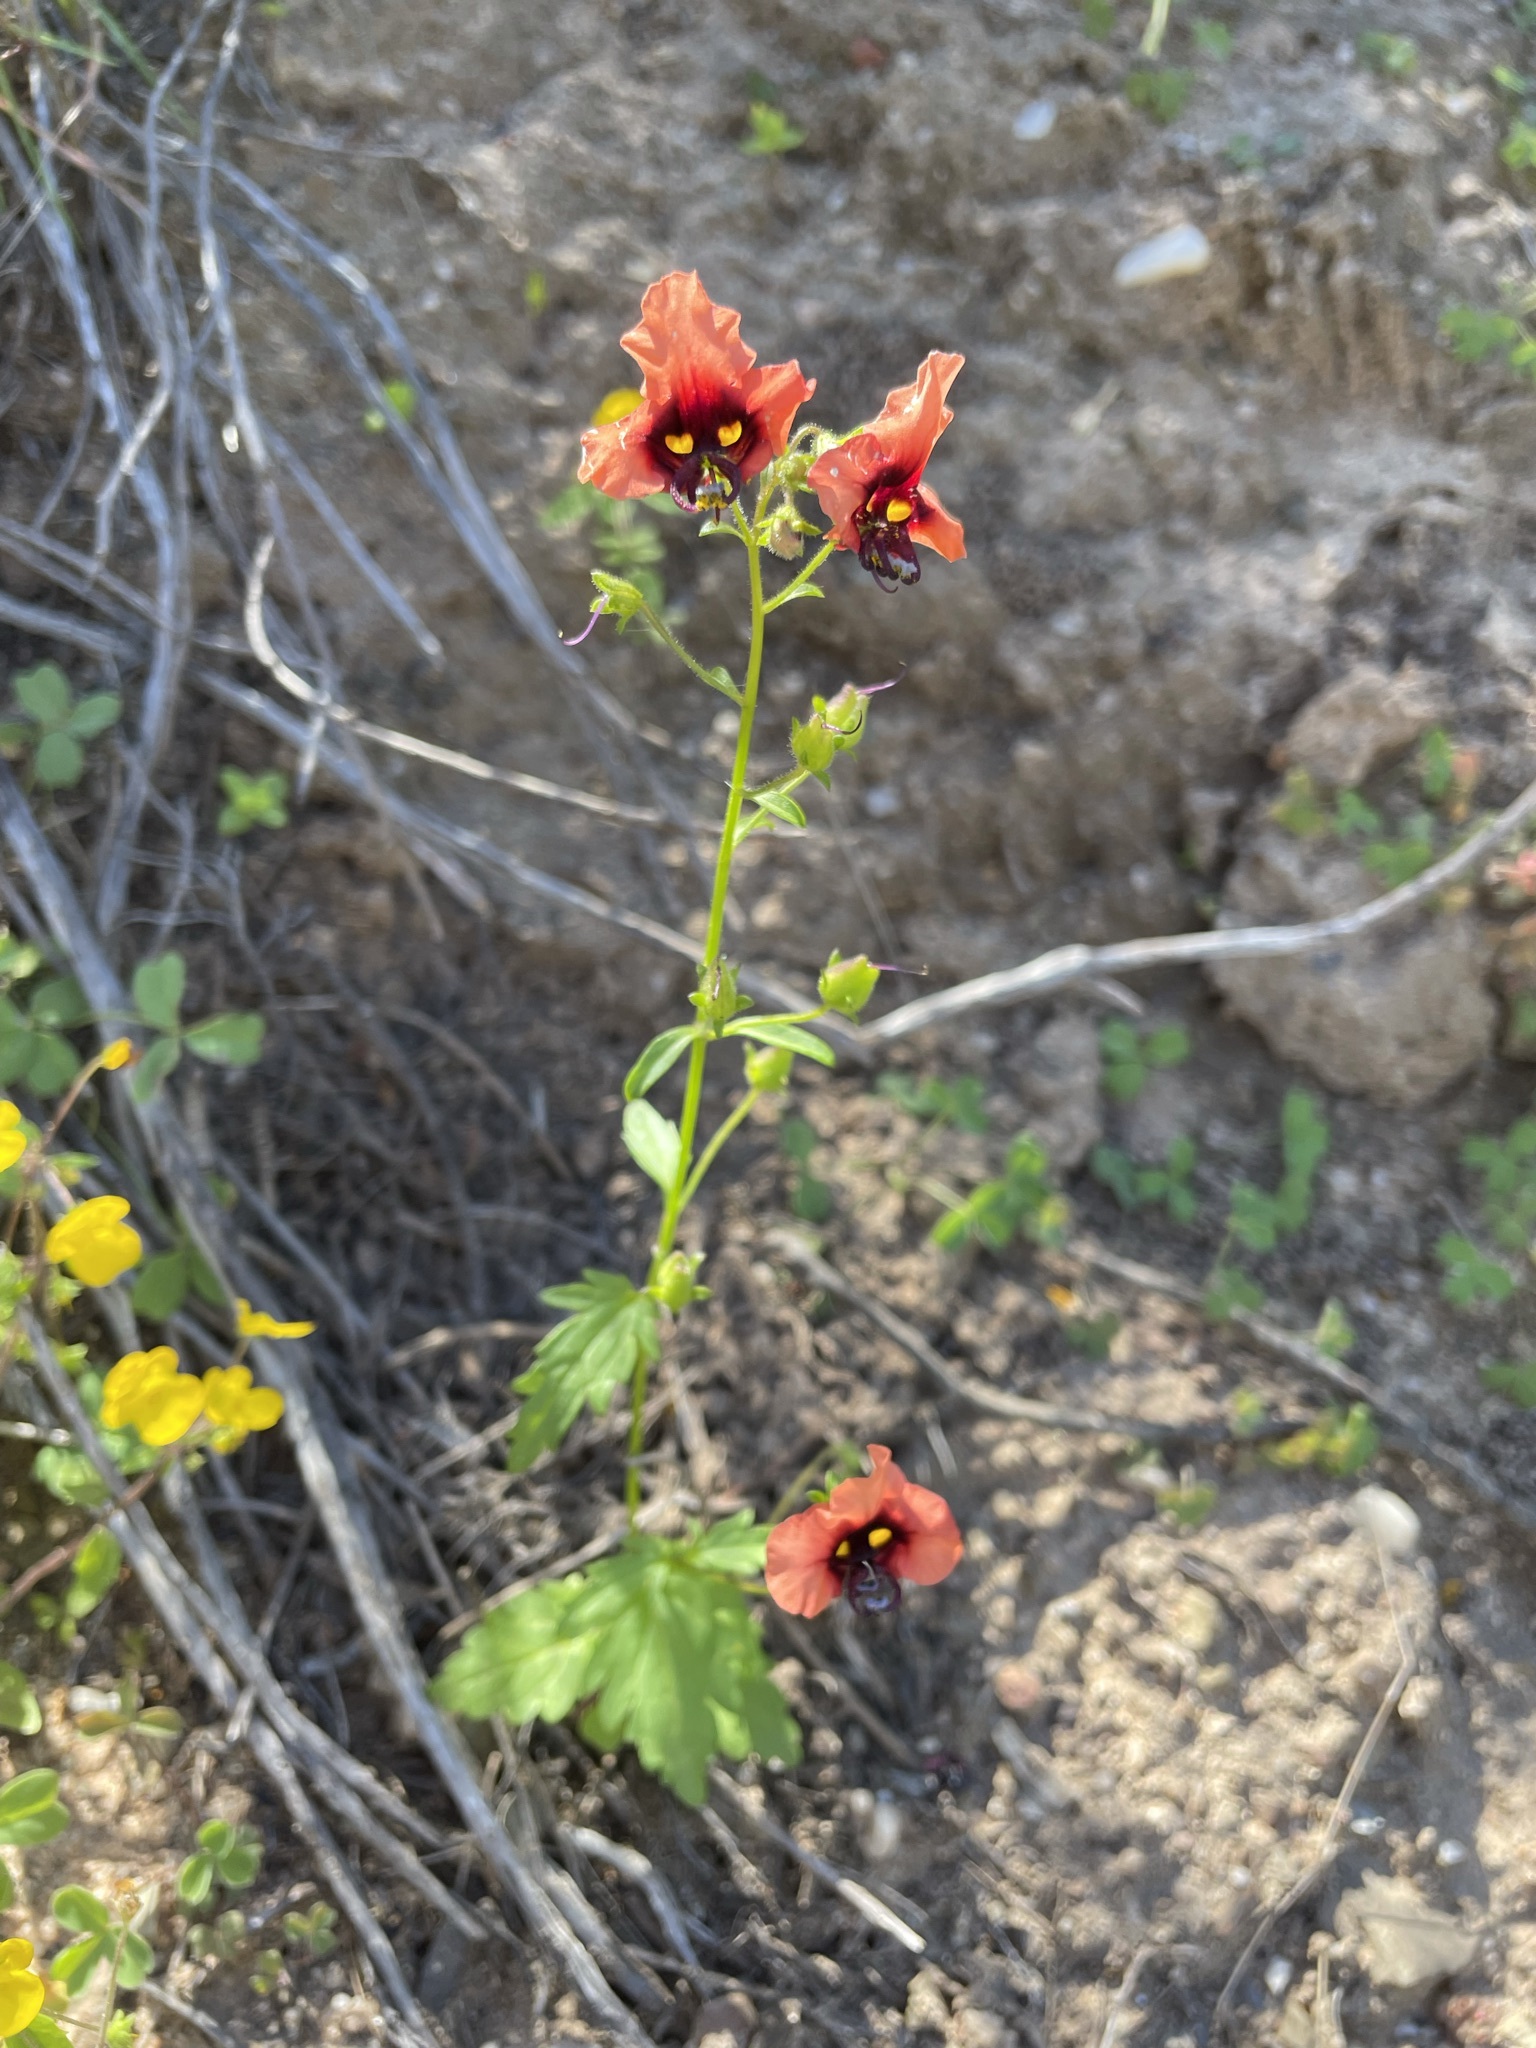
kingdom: Plantae
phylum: Tracheophyta
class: Magnoliopsida
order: Lamiales
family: Scrophulariaceae
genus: Alonsoa
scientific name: Alonsoa unilabiata
